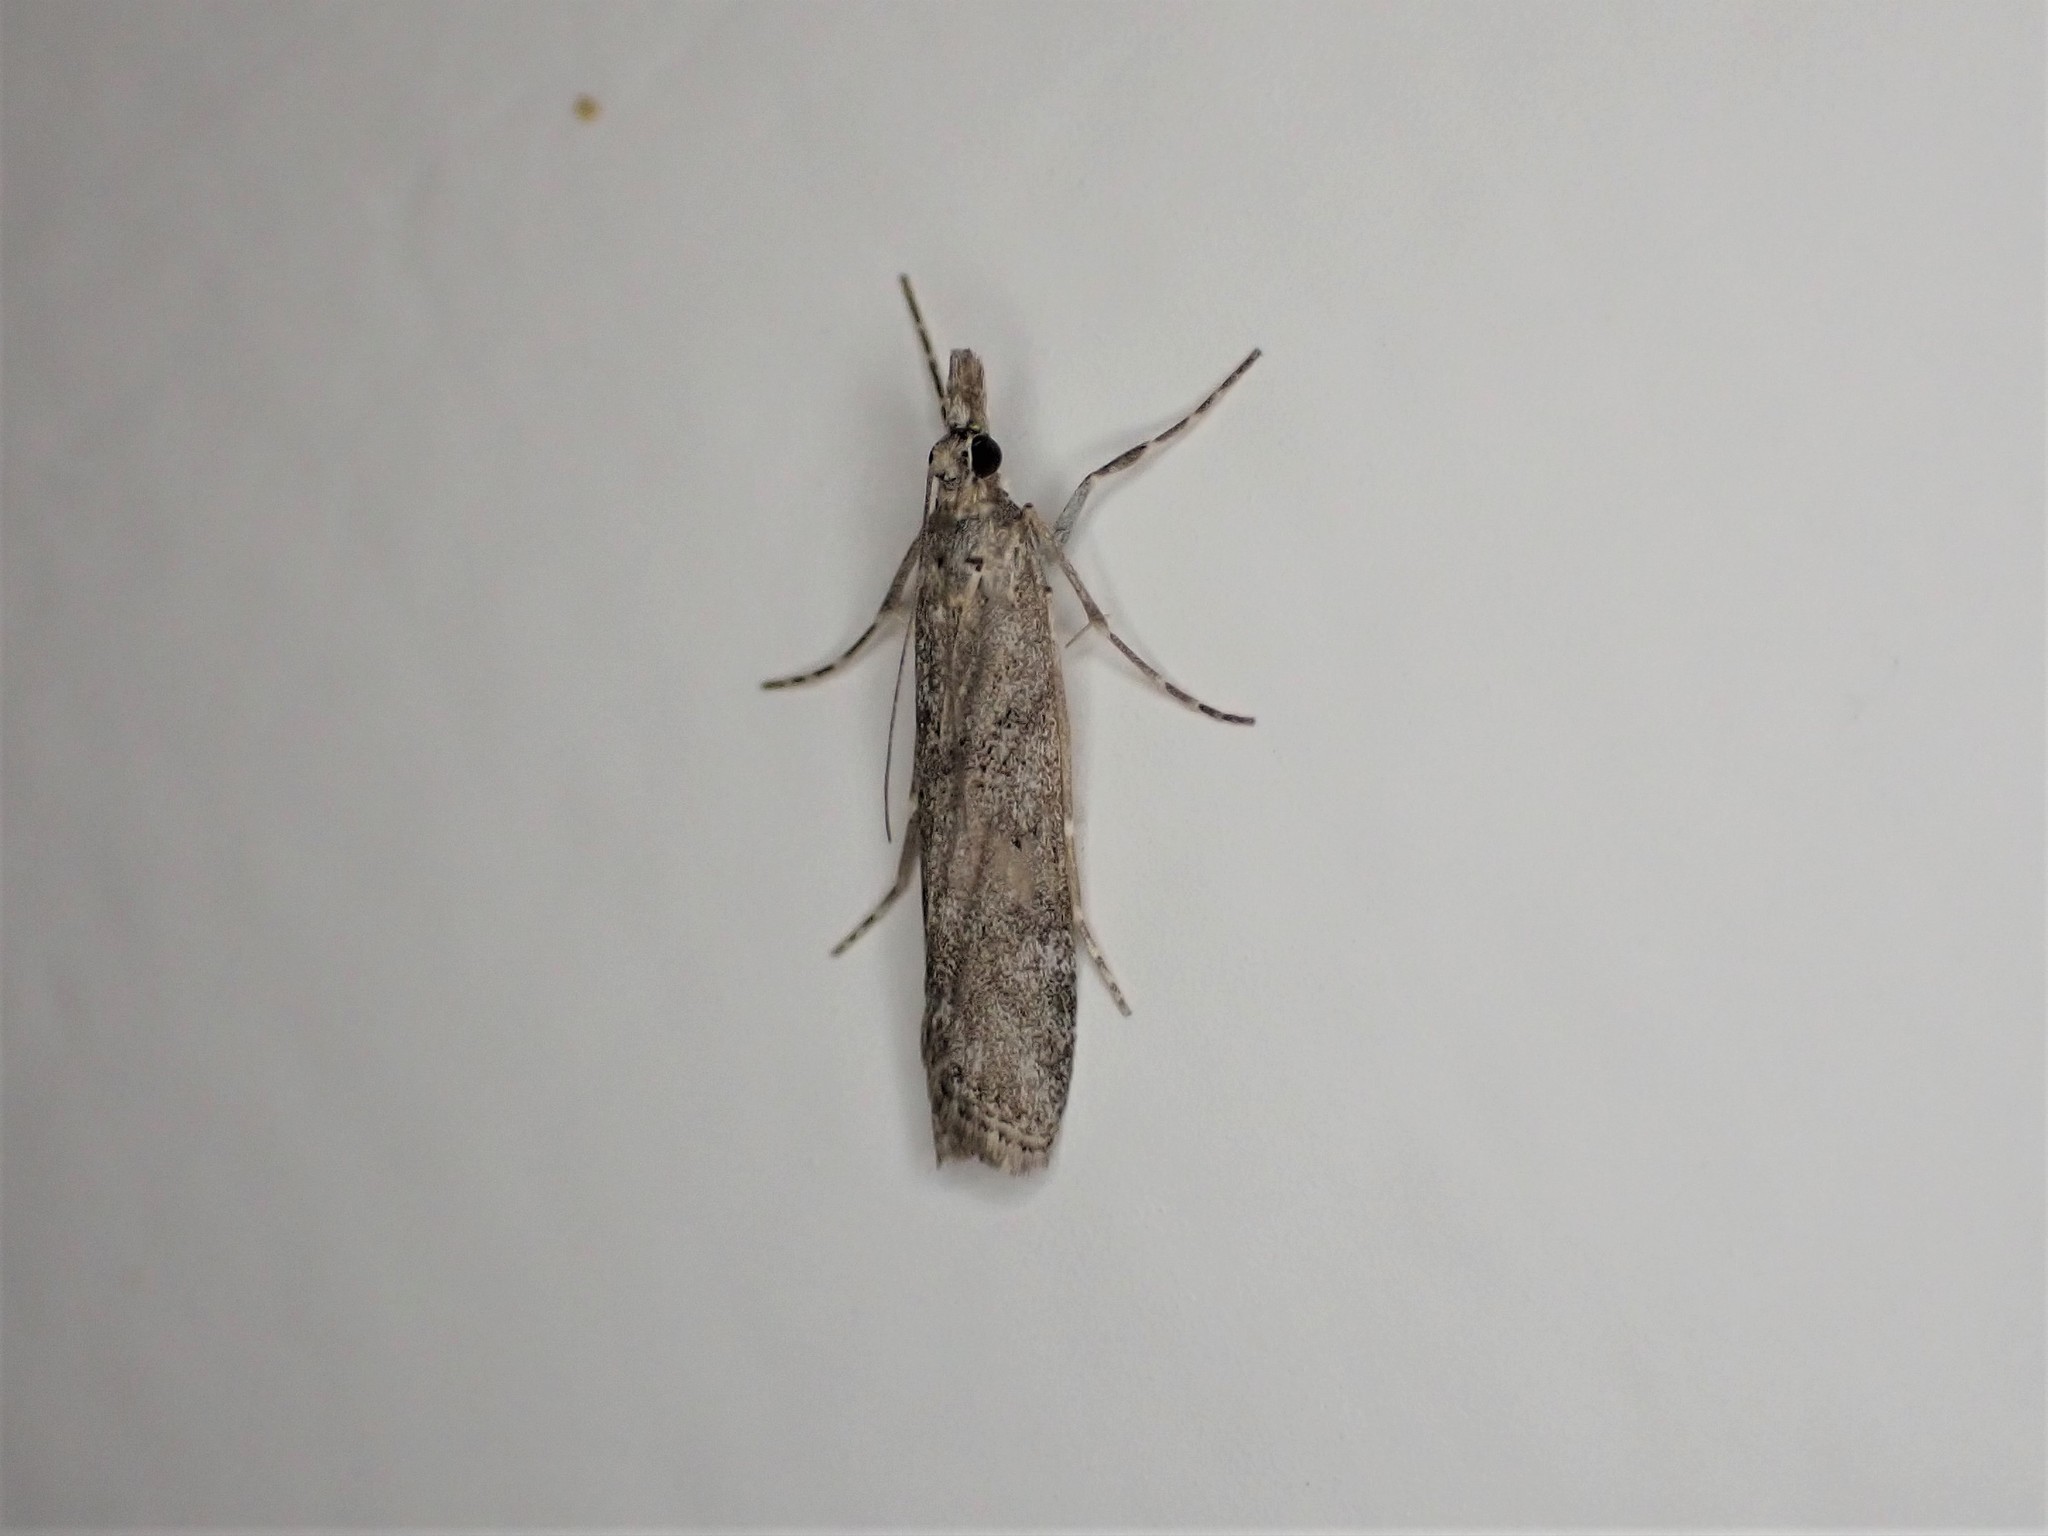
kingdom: Animalia
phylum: Arthropoda
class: Insecta
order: Lepidoptera
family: Crambidae
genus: Eudonia
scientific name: Eudonia leptalea
